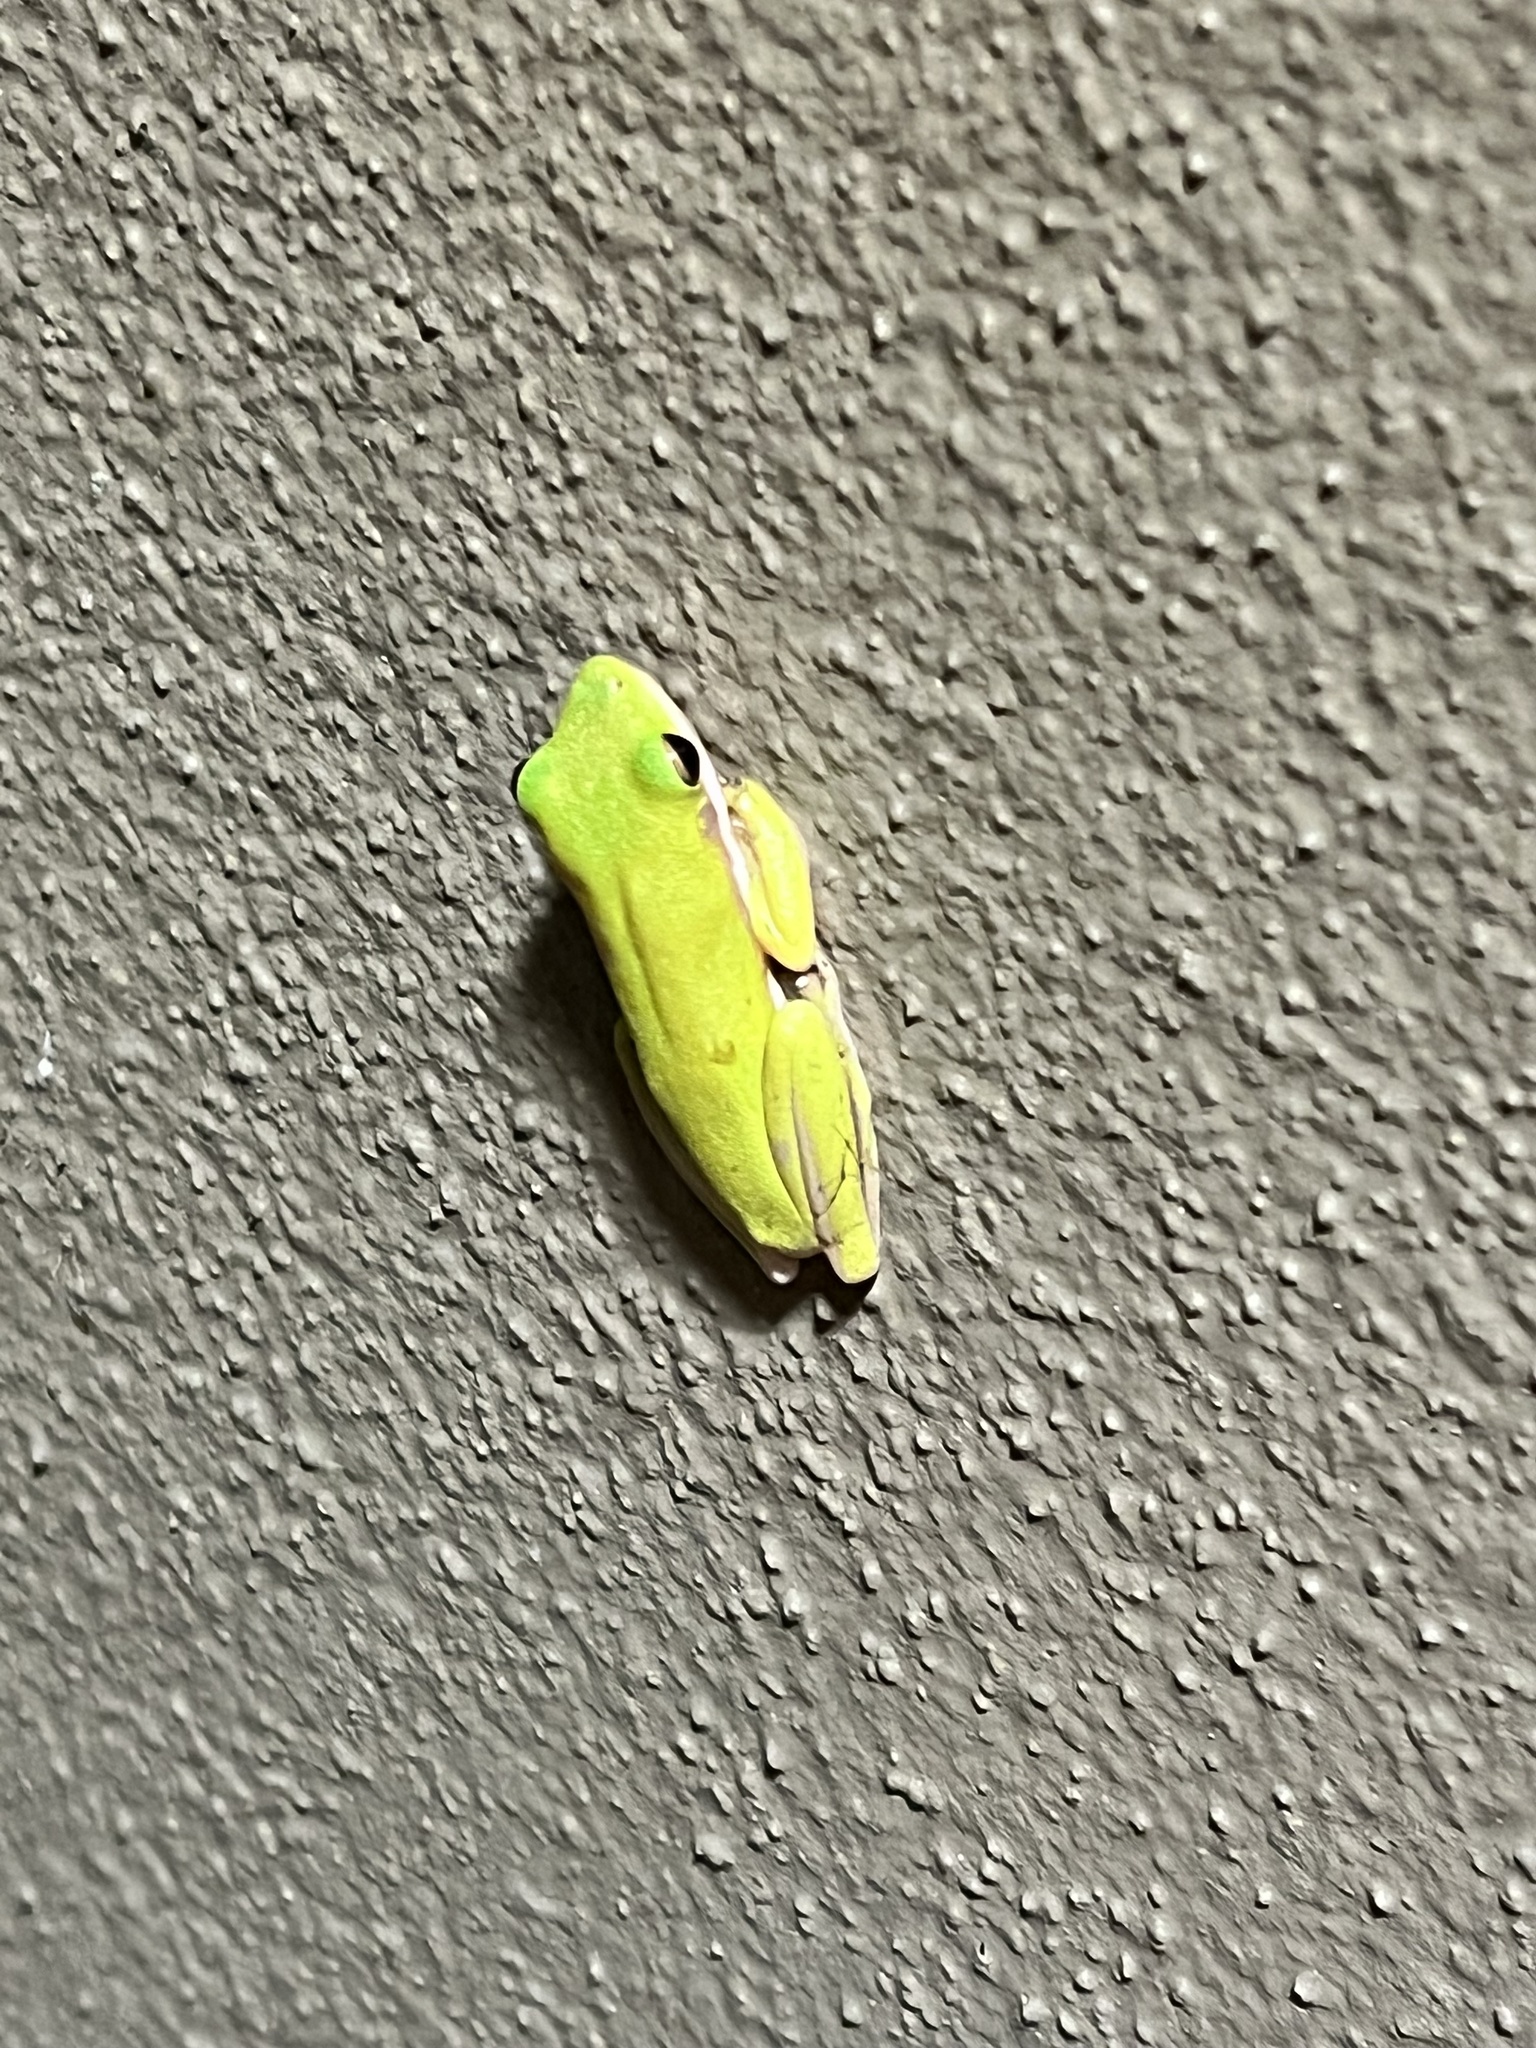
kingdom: Animalia
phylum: Chordata
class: Amphibia
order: Anura
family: Hylidae
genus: Dryophytes
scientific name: Dryophytes cinereus
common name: Green treefrog
